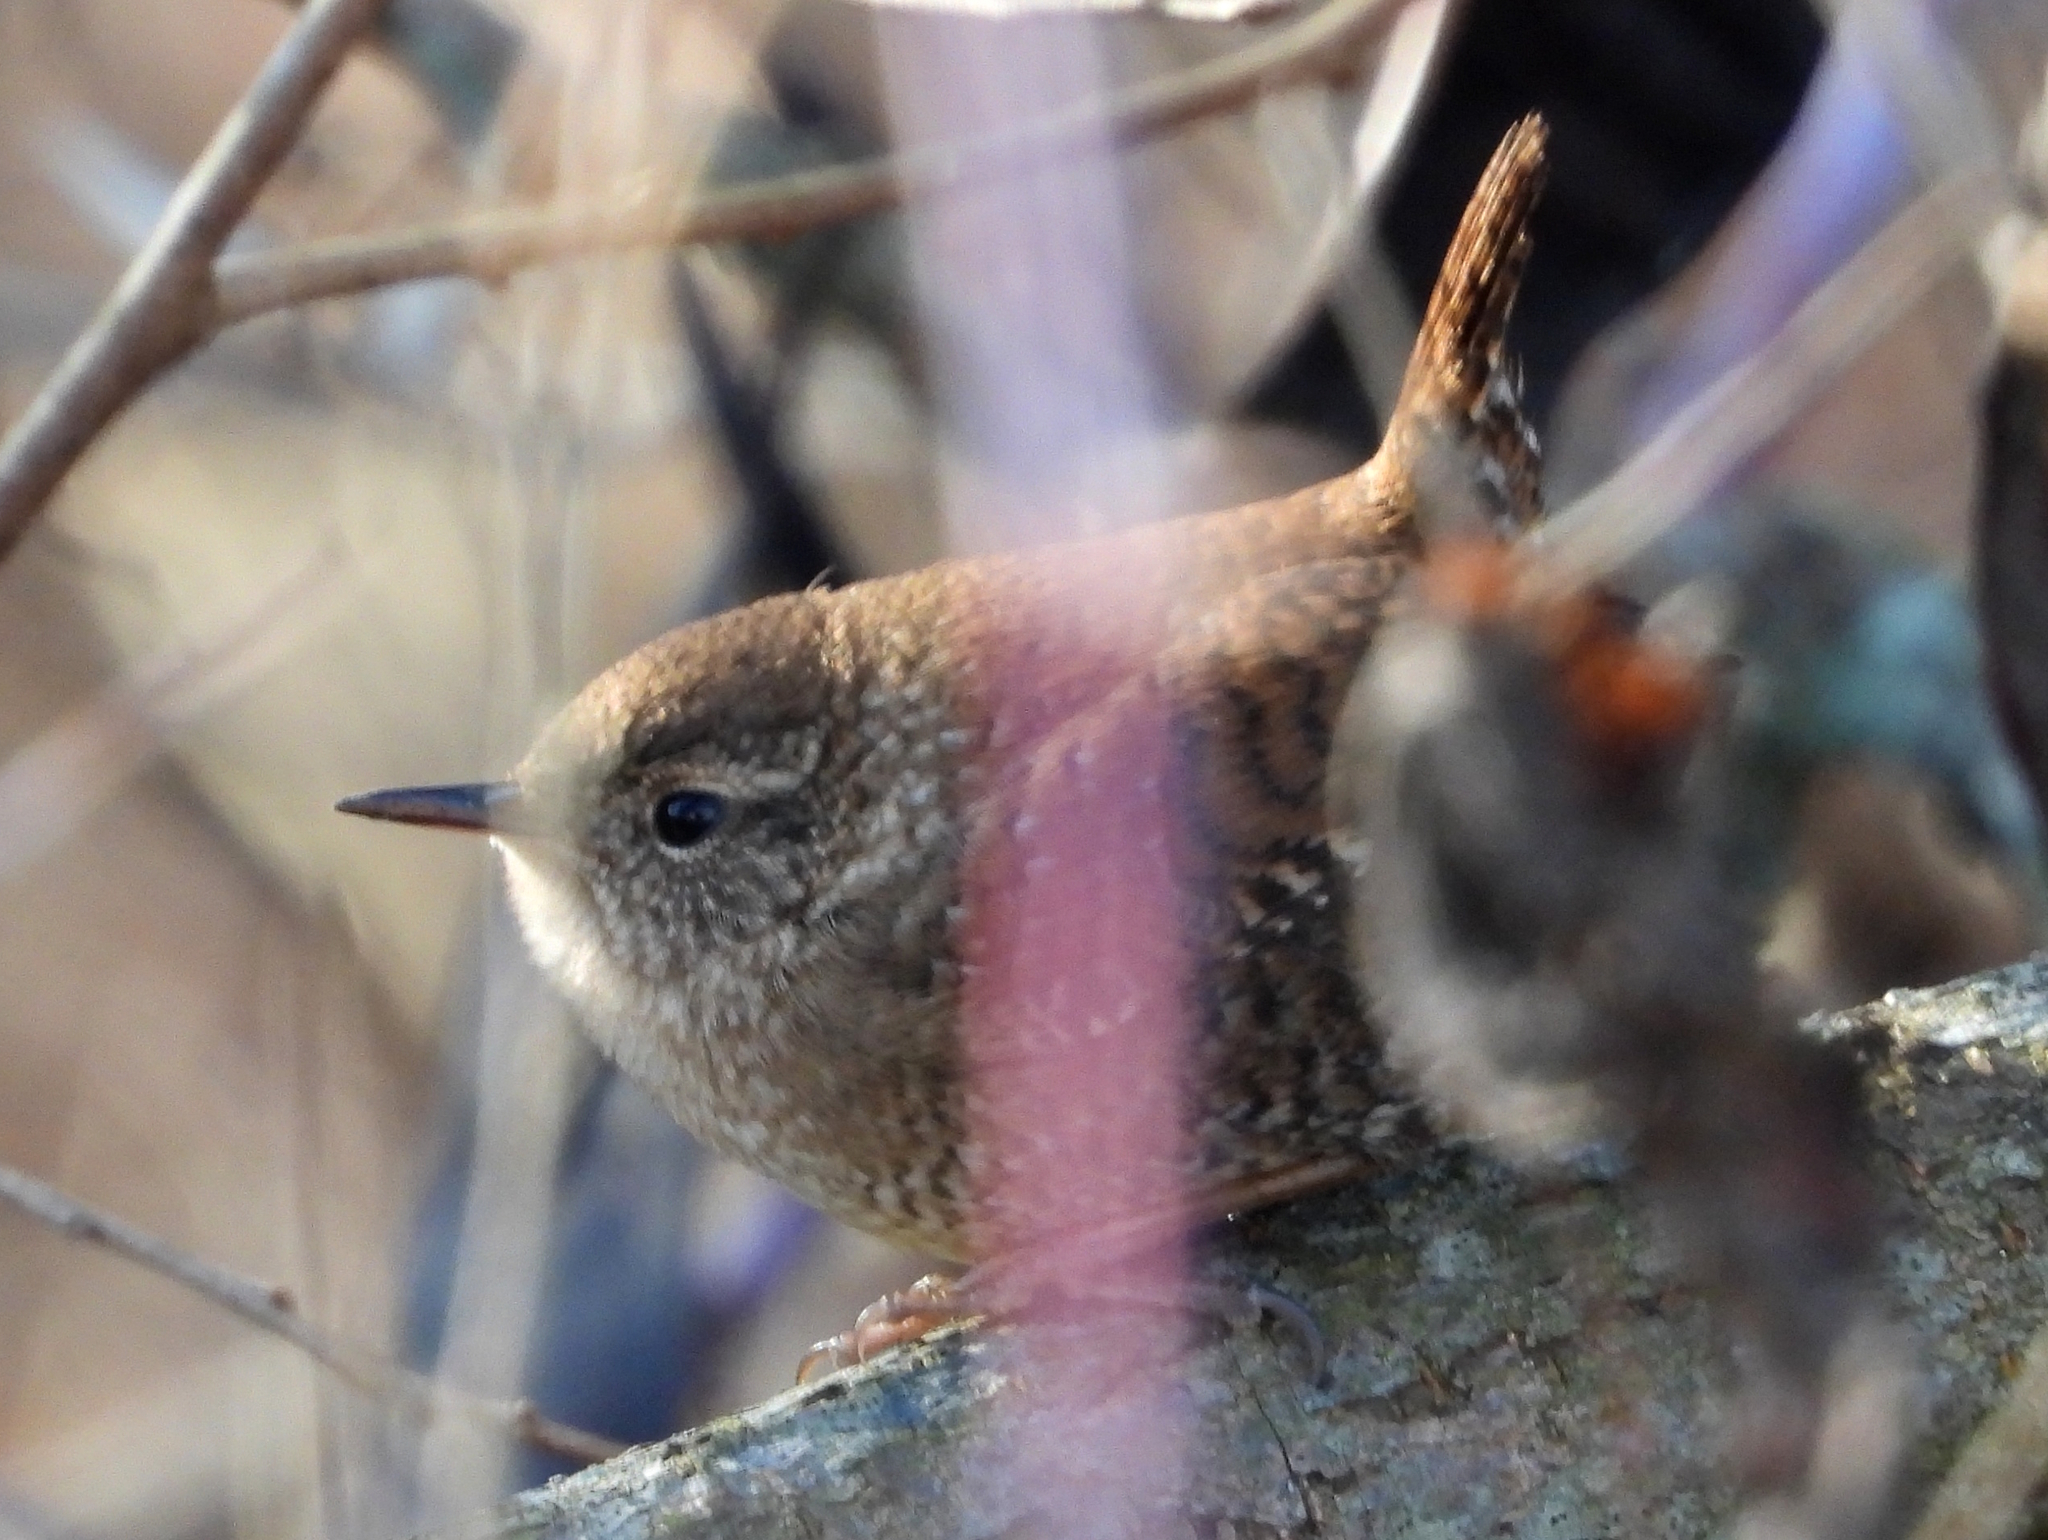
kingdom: Animalia
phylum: Chordata
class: Aves
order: Passeriformes
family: Troglodytidae
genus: Troglodytes
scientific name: Troglodytes hiemalis
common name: Winter wren
